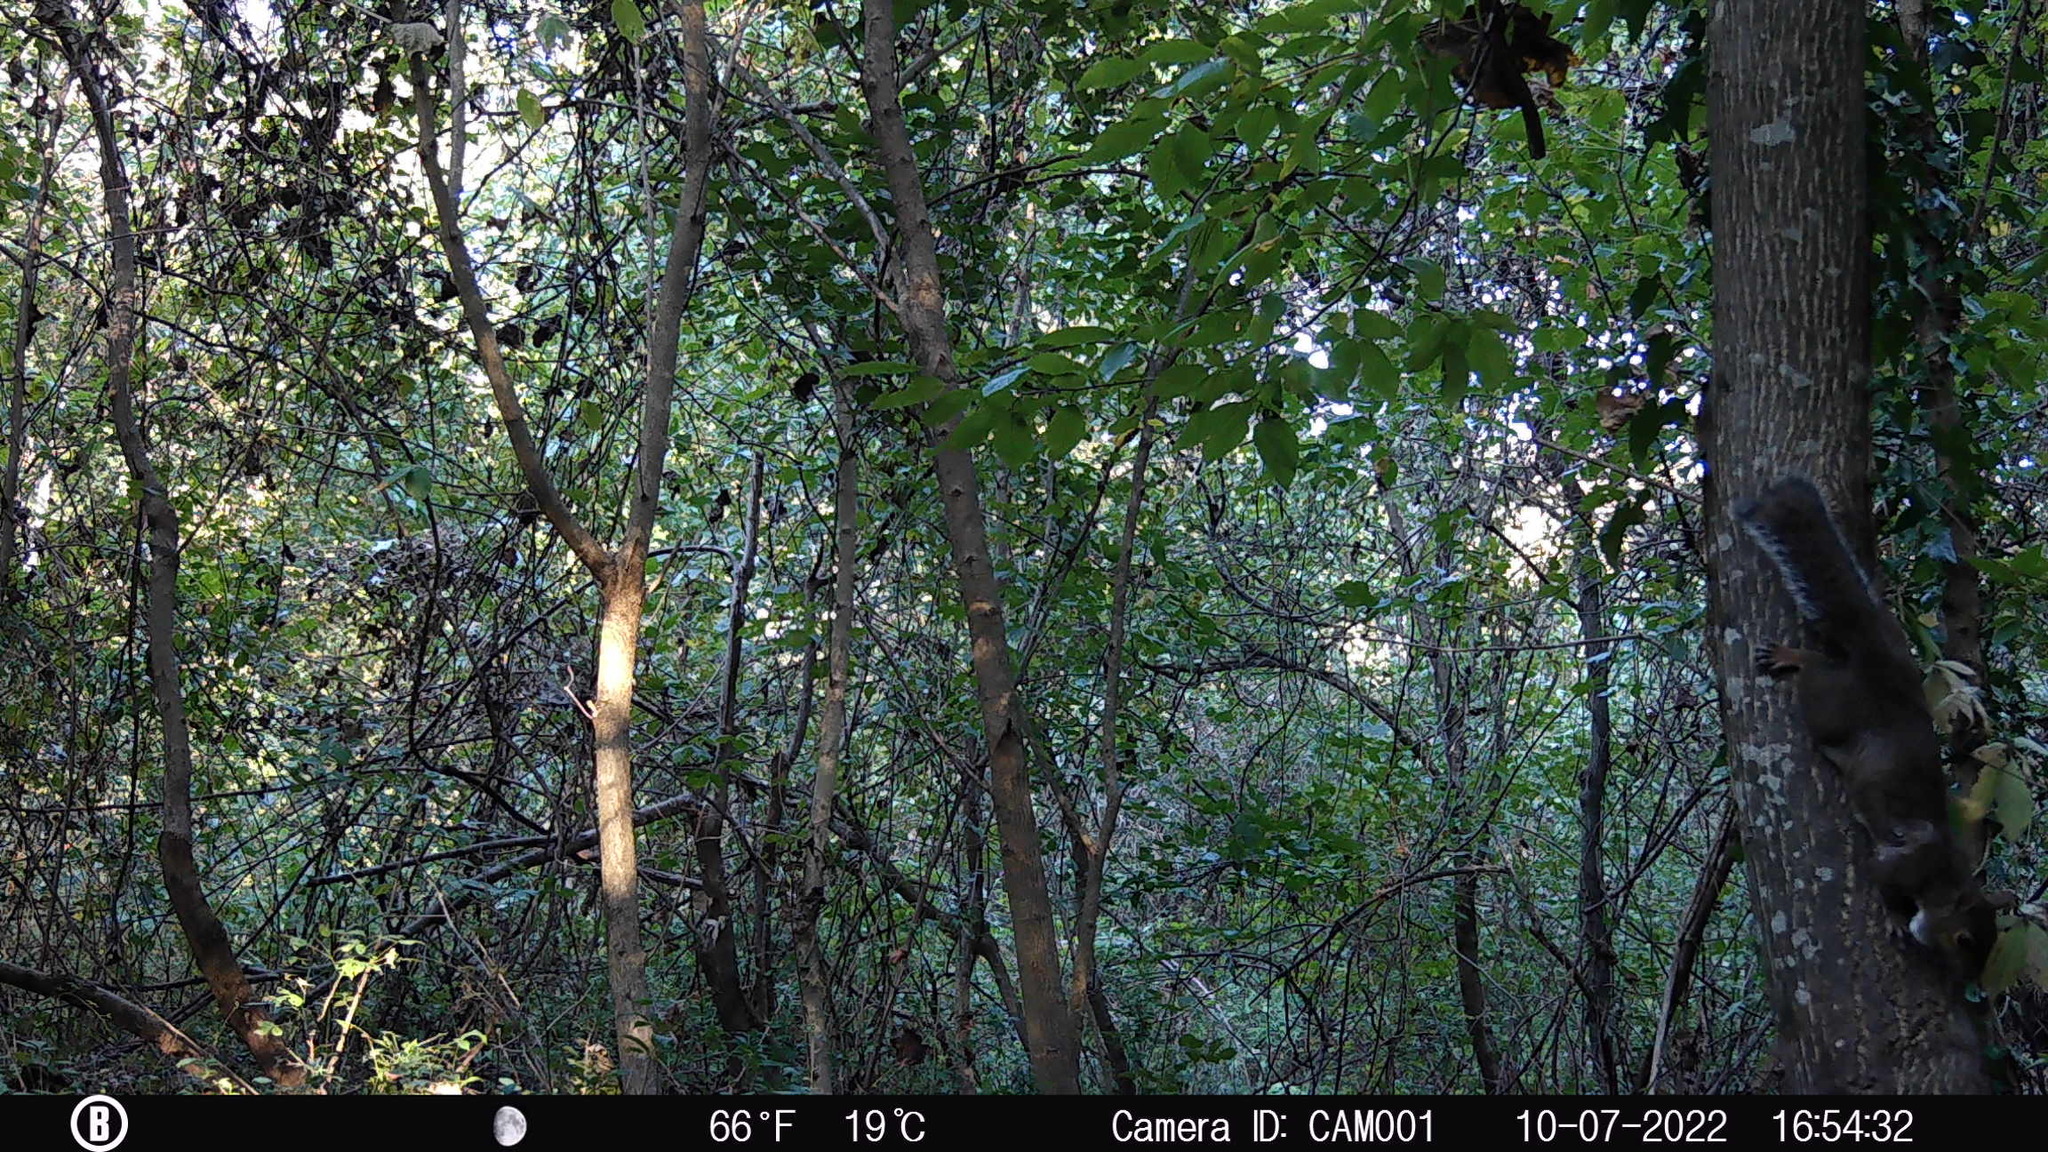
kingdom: Animalia
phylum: Chordata
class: Mammalia
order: Rodentia
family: Sciuridae
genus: Sciurus
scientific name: Sciurus carolinensis
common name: Eastern gray squirrel
